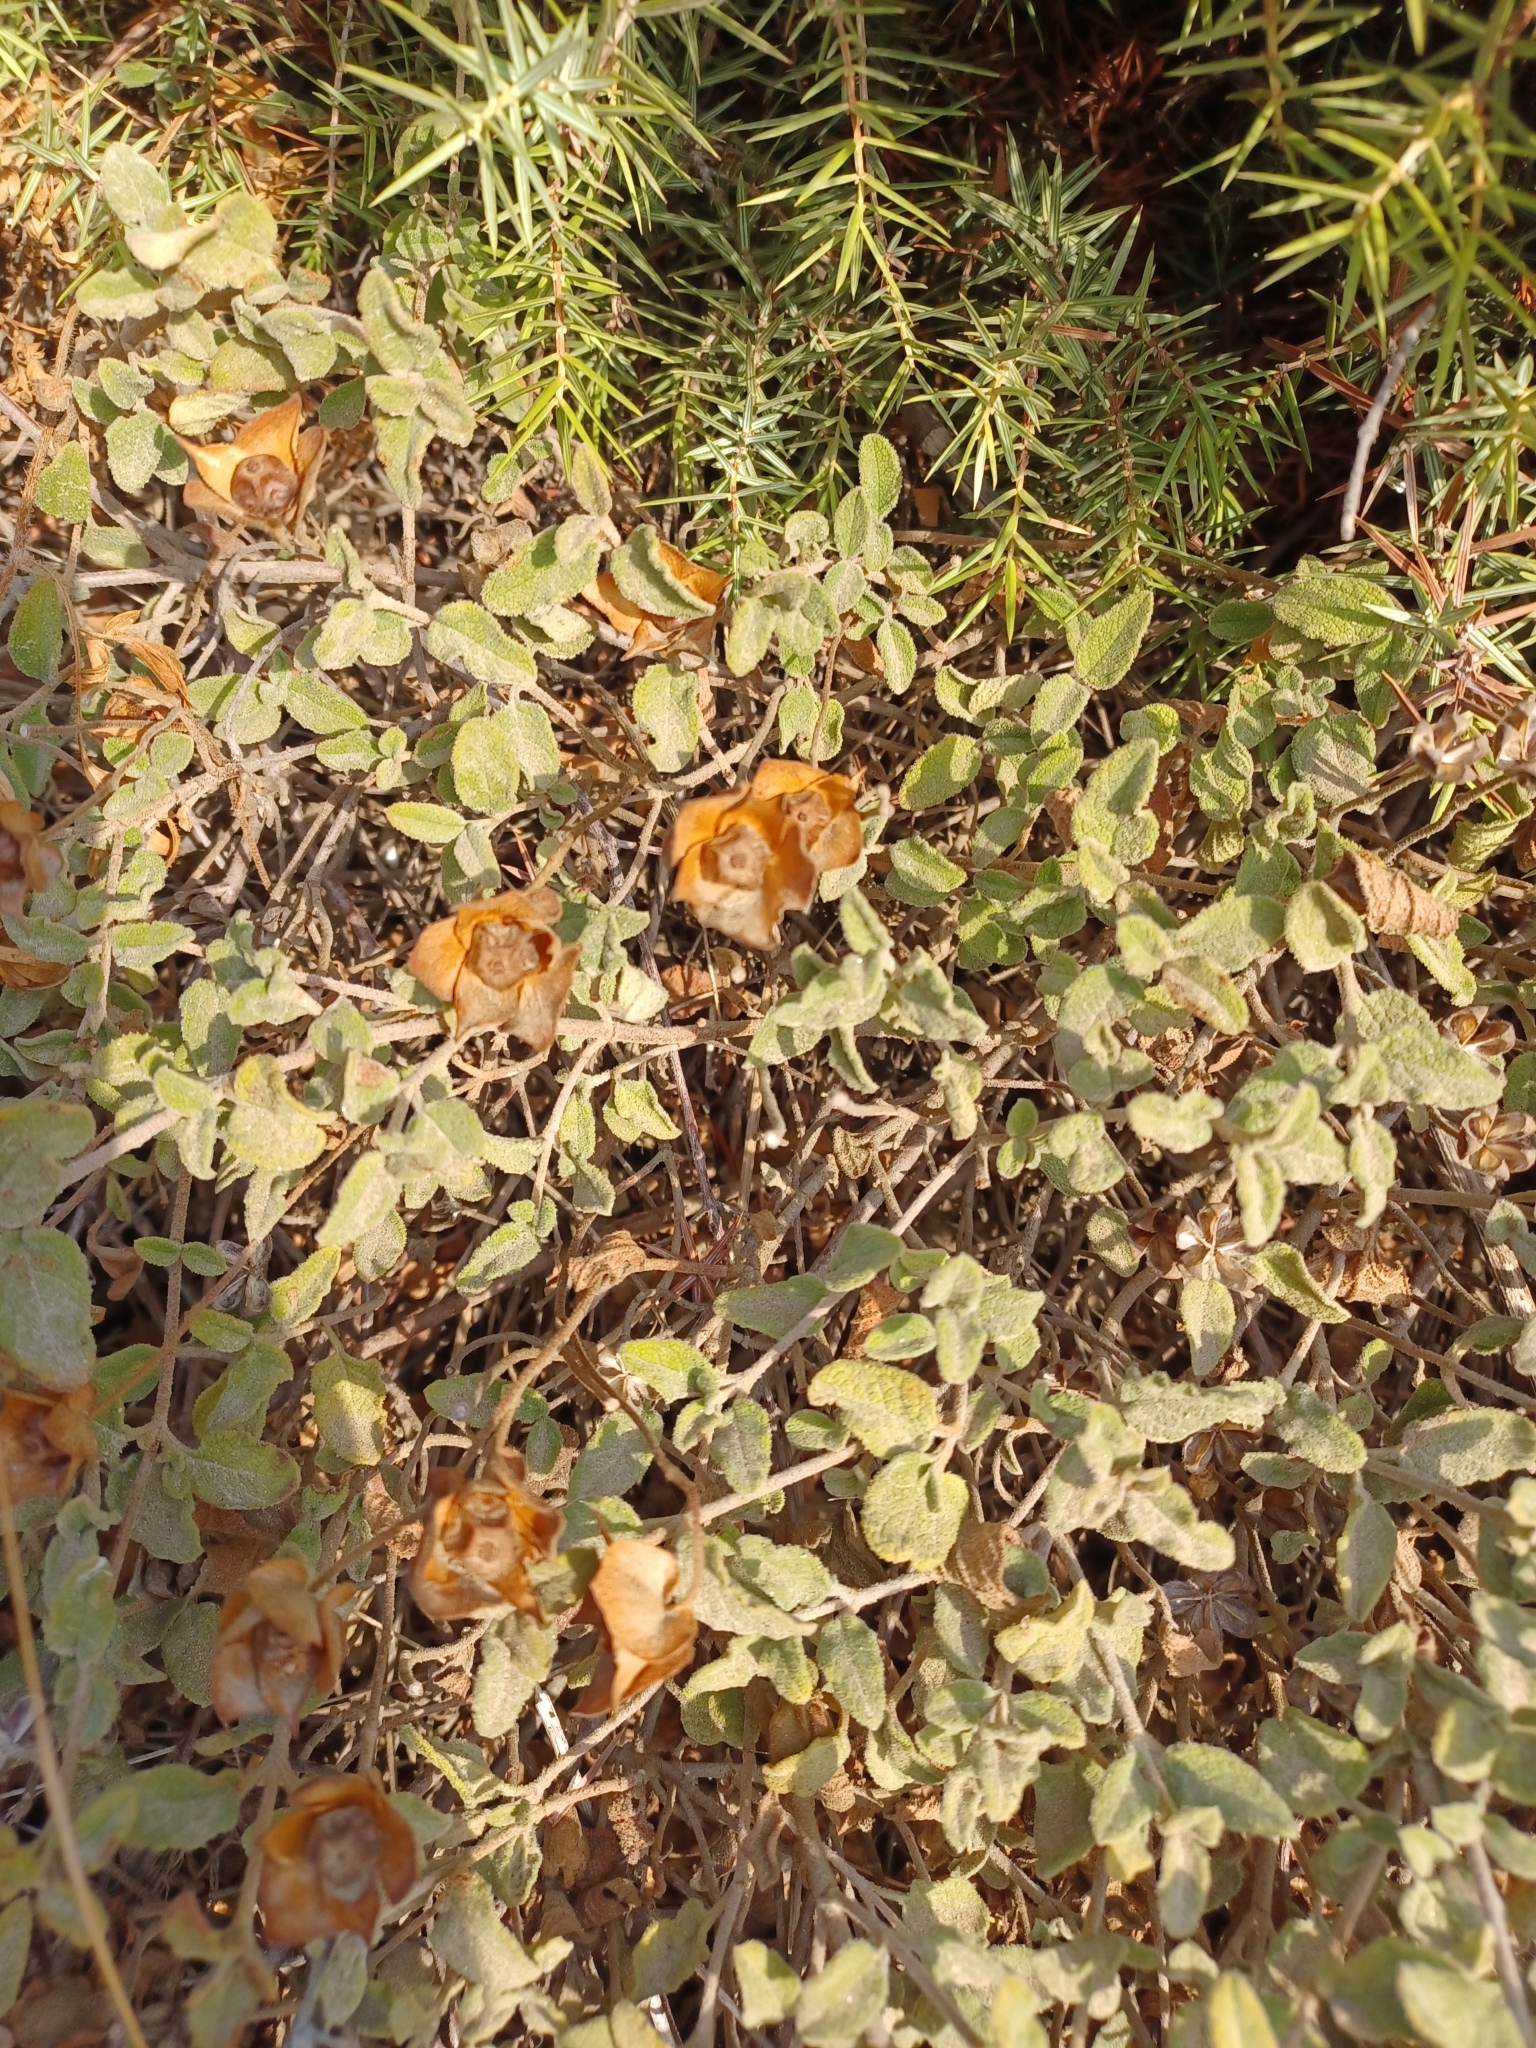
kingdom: Plantae
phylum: Tracheophyta
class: Magnoliopsida
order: Malvales
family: Cistaceae
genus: Cistus
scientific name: Cistus salviifolius
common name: Salvia cistus
